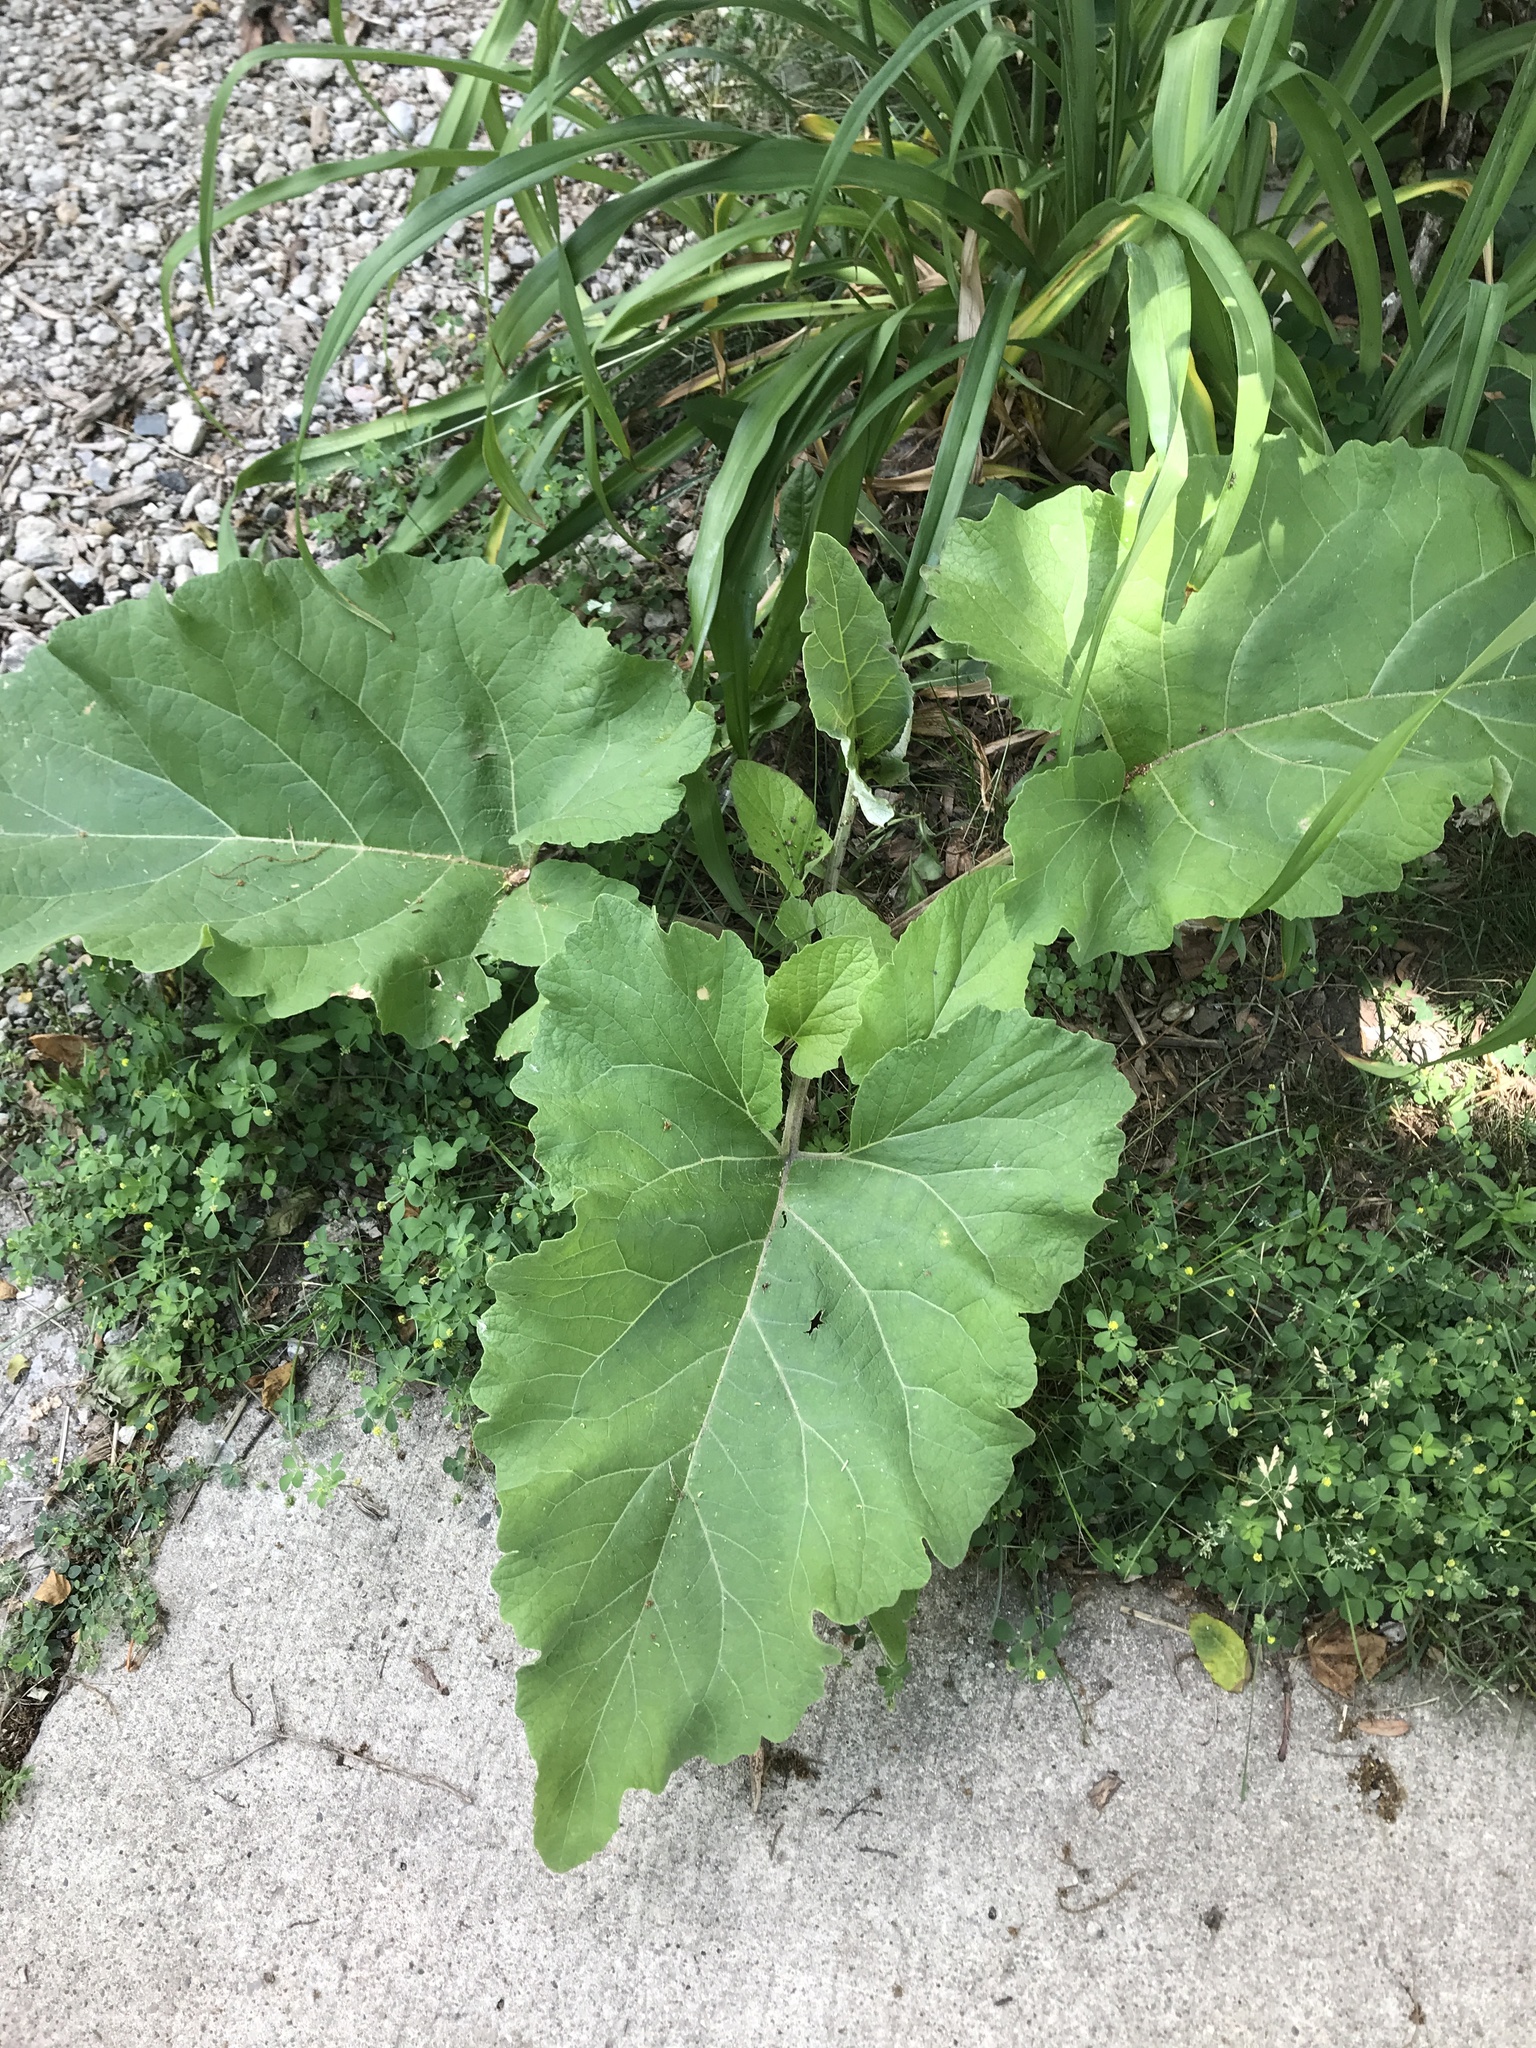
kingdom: Plantae
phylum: Tracheophyta
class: Magnoliopsida
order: Asterales
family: Asteraceae
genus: Arctium
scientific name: Arctium
